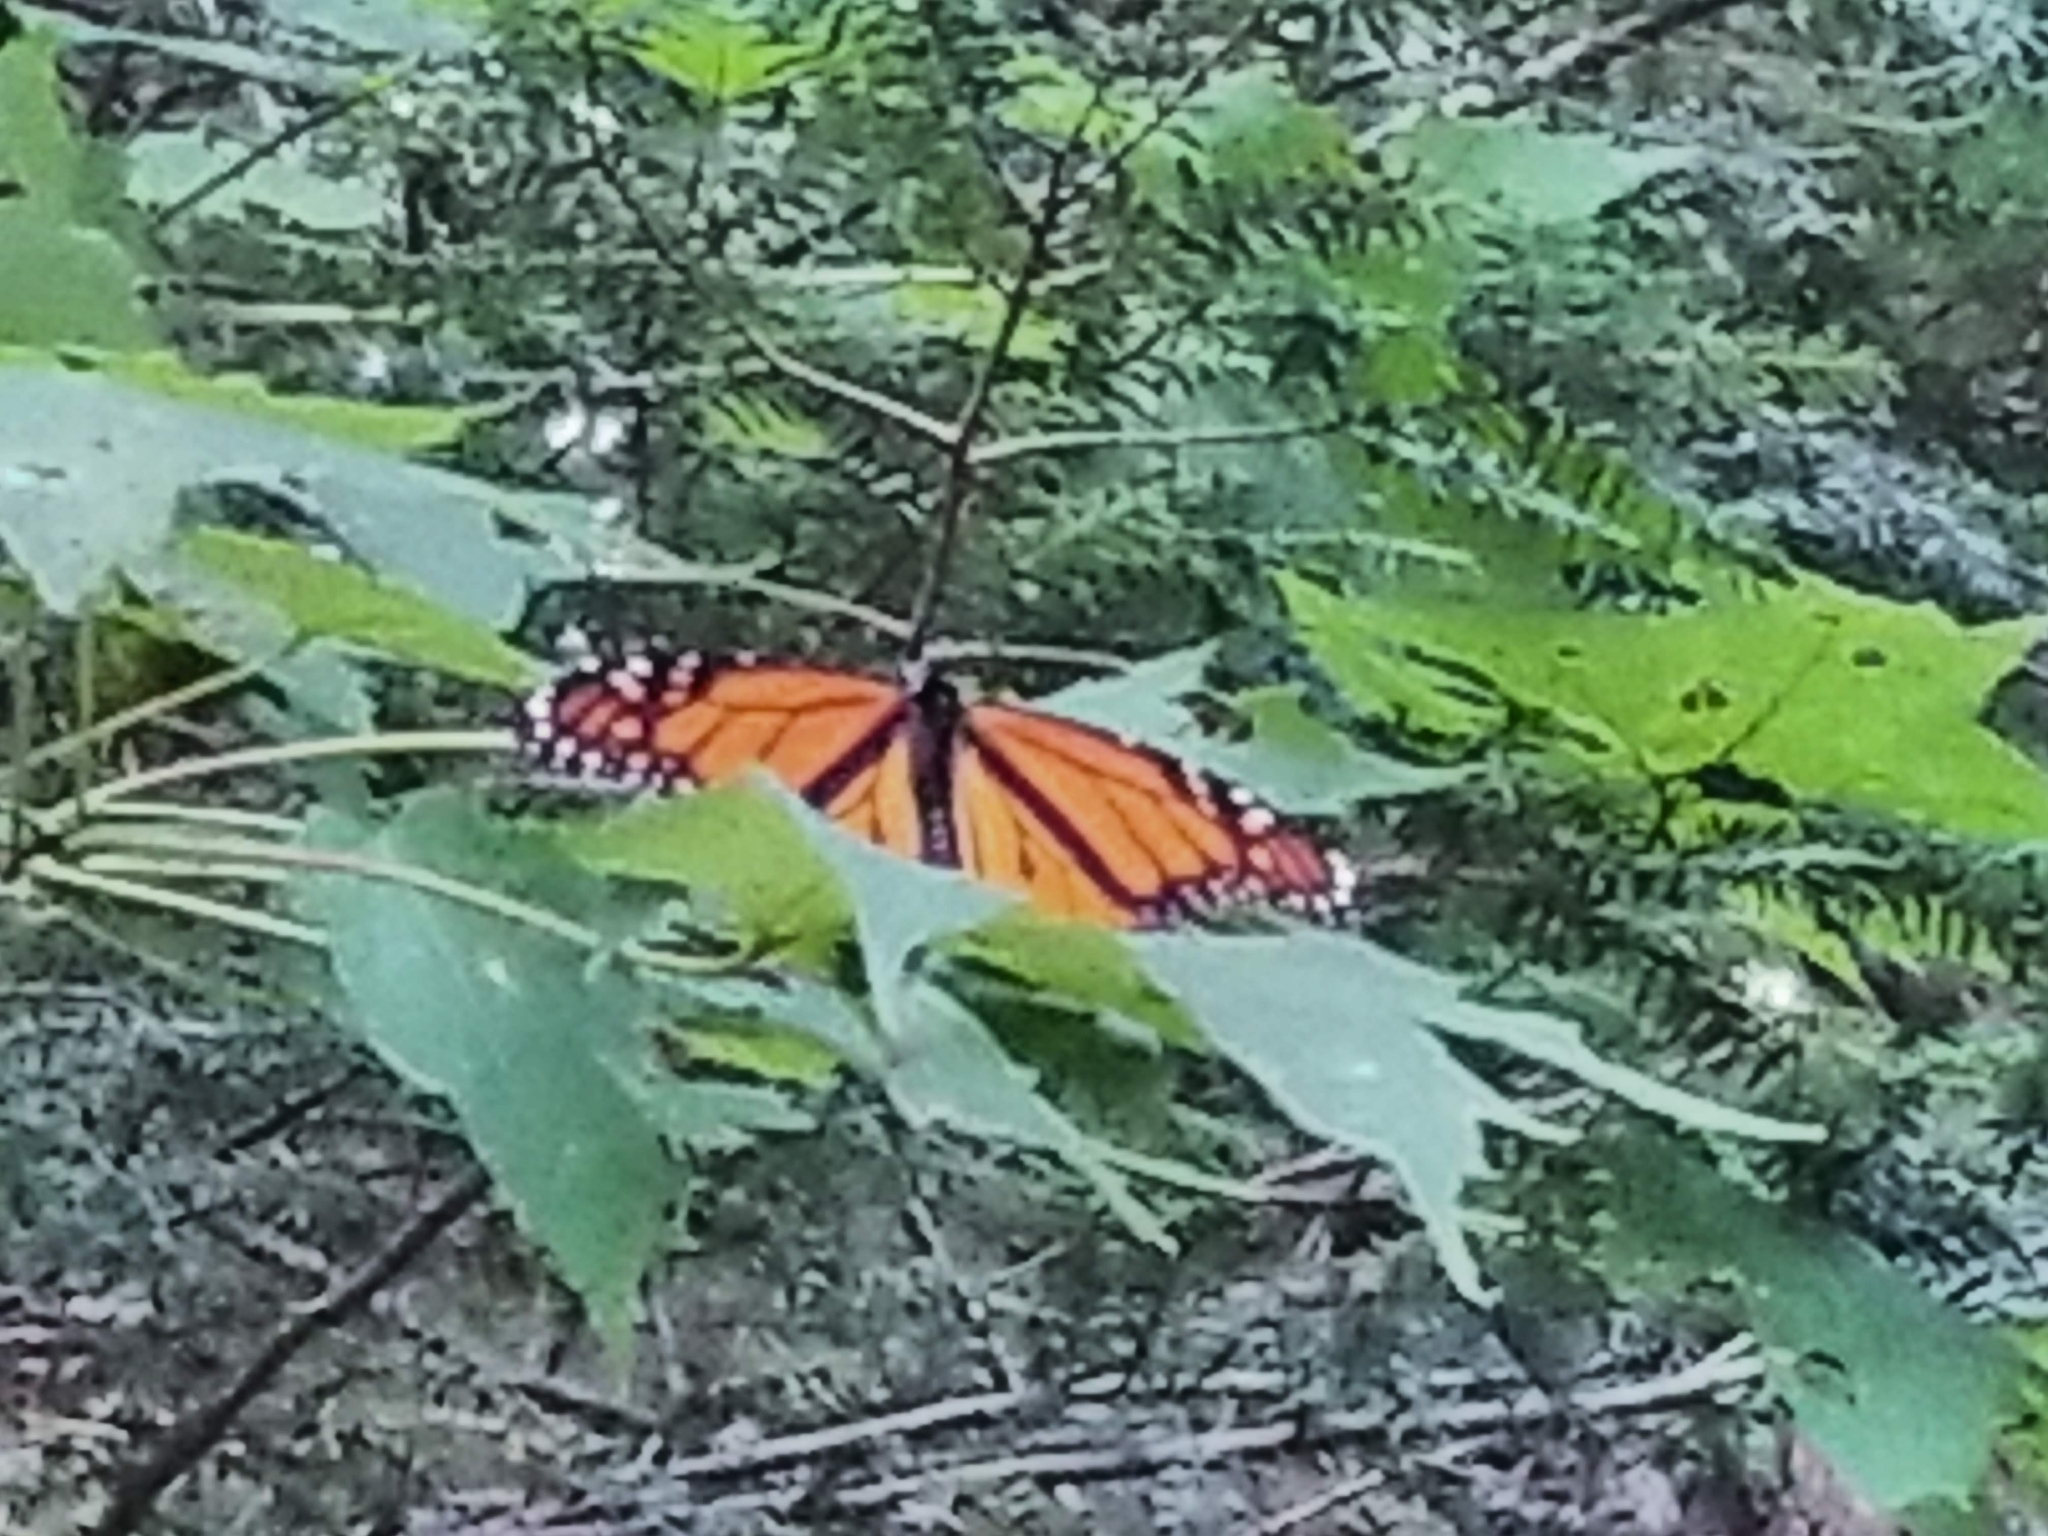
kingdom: Animalia
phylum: Arthropoda
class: Insecta
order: Lepidoptera
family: Nymphalidae
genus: Danaus
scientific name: Danaus plexippus
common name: Monarch
